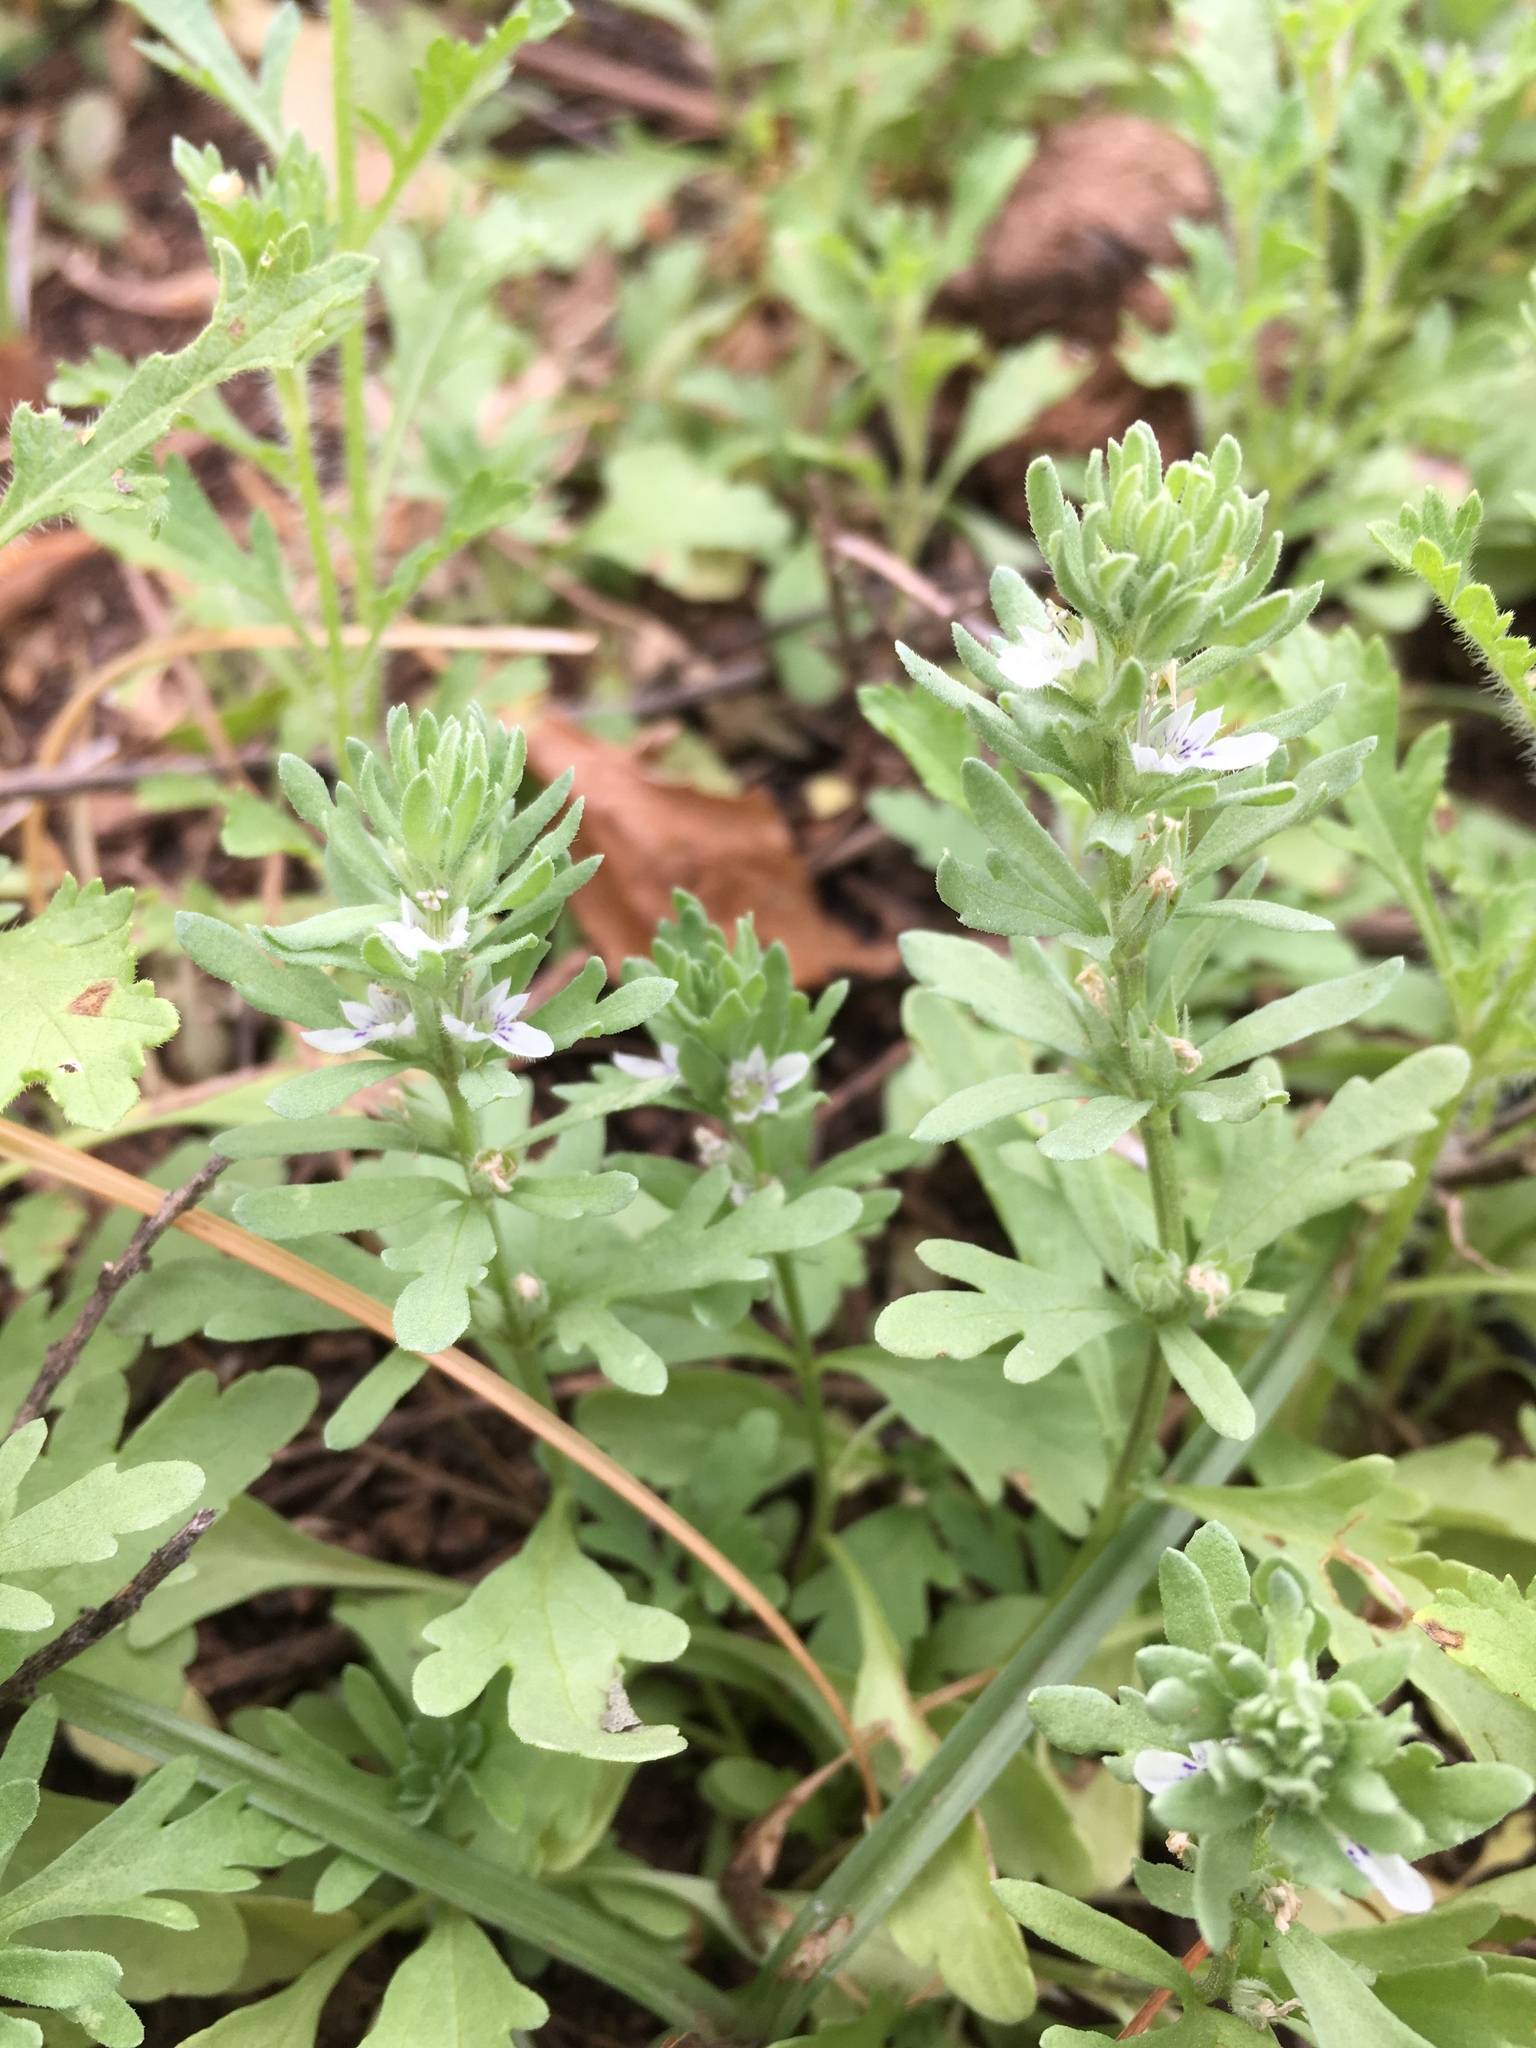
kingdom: Plantae
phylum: Tracheophyta
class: Magnoliopsida
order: Lamiales
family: Lamiaceae
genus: Teucrium
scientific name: Teucrium depressum
